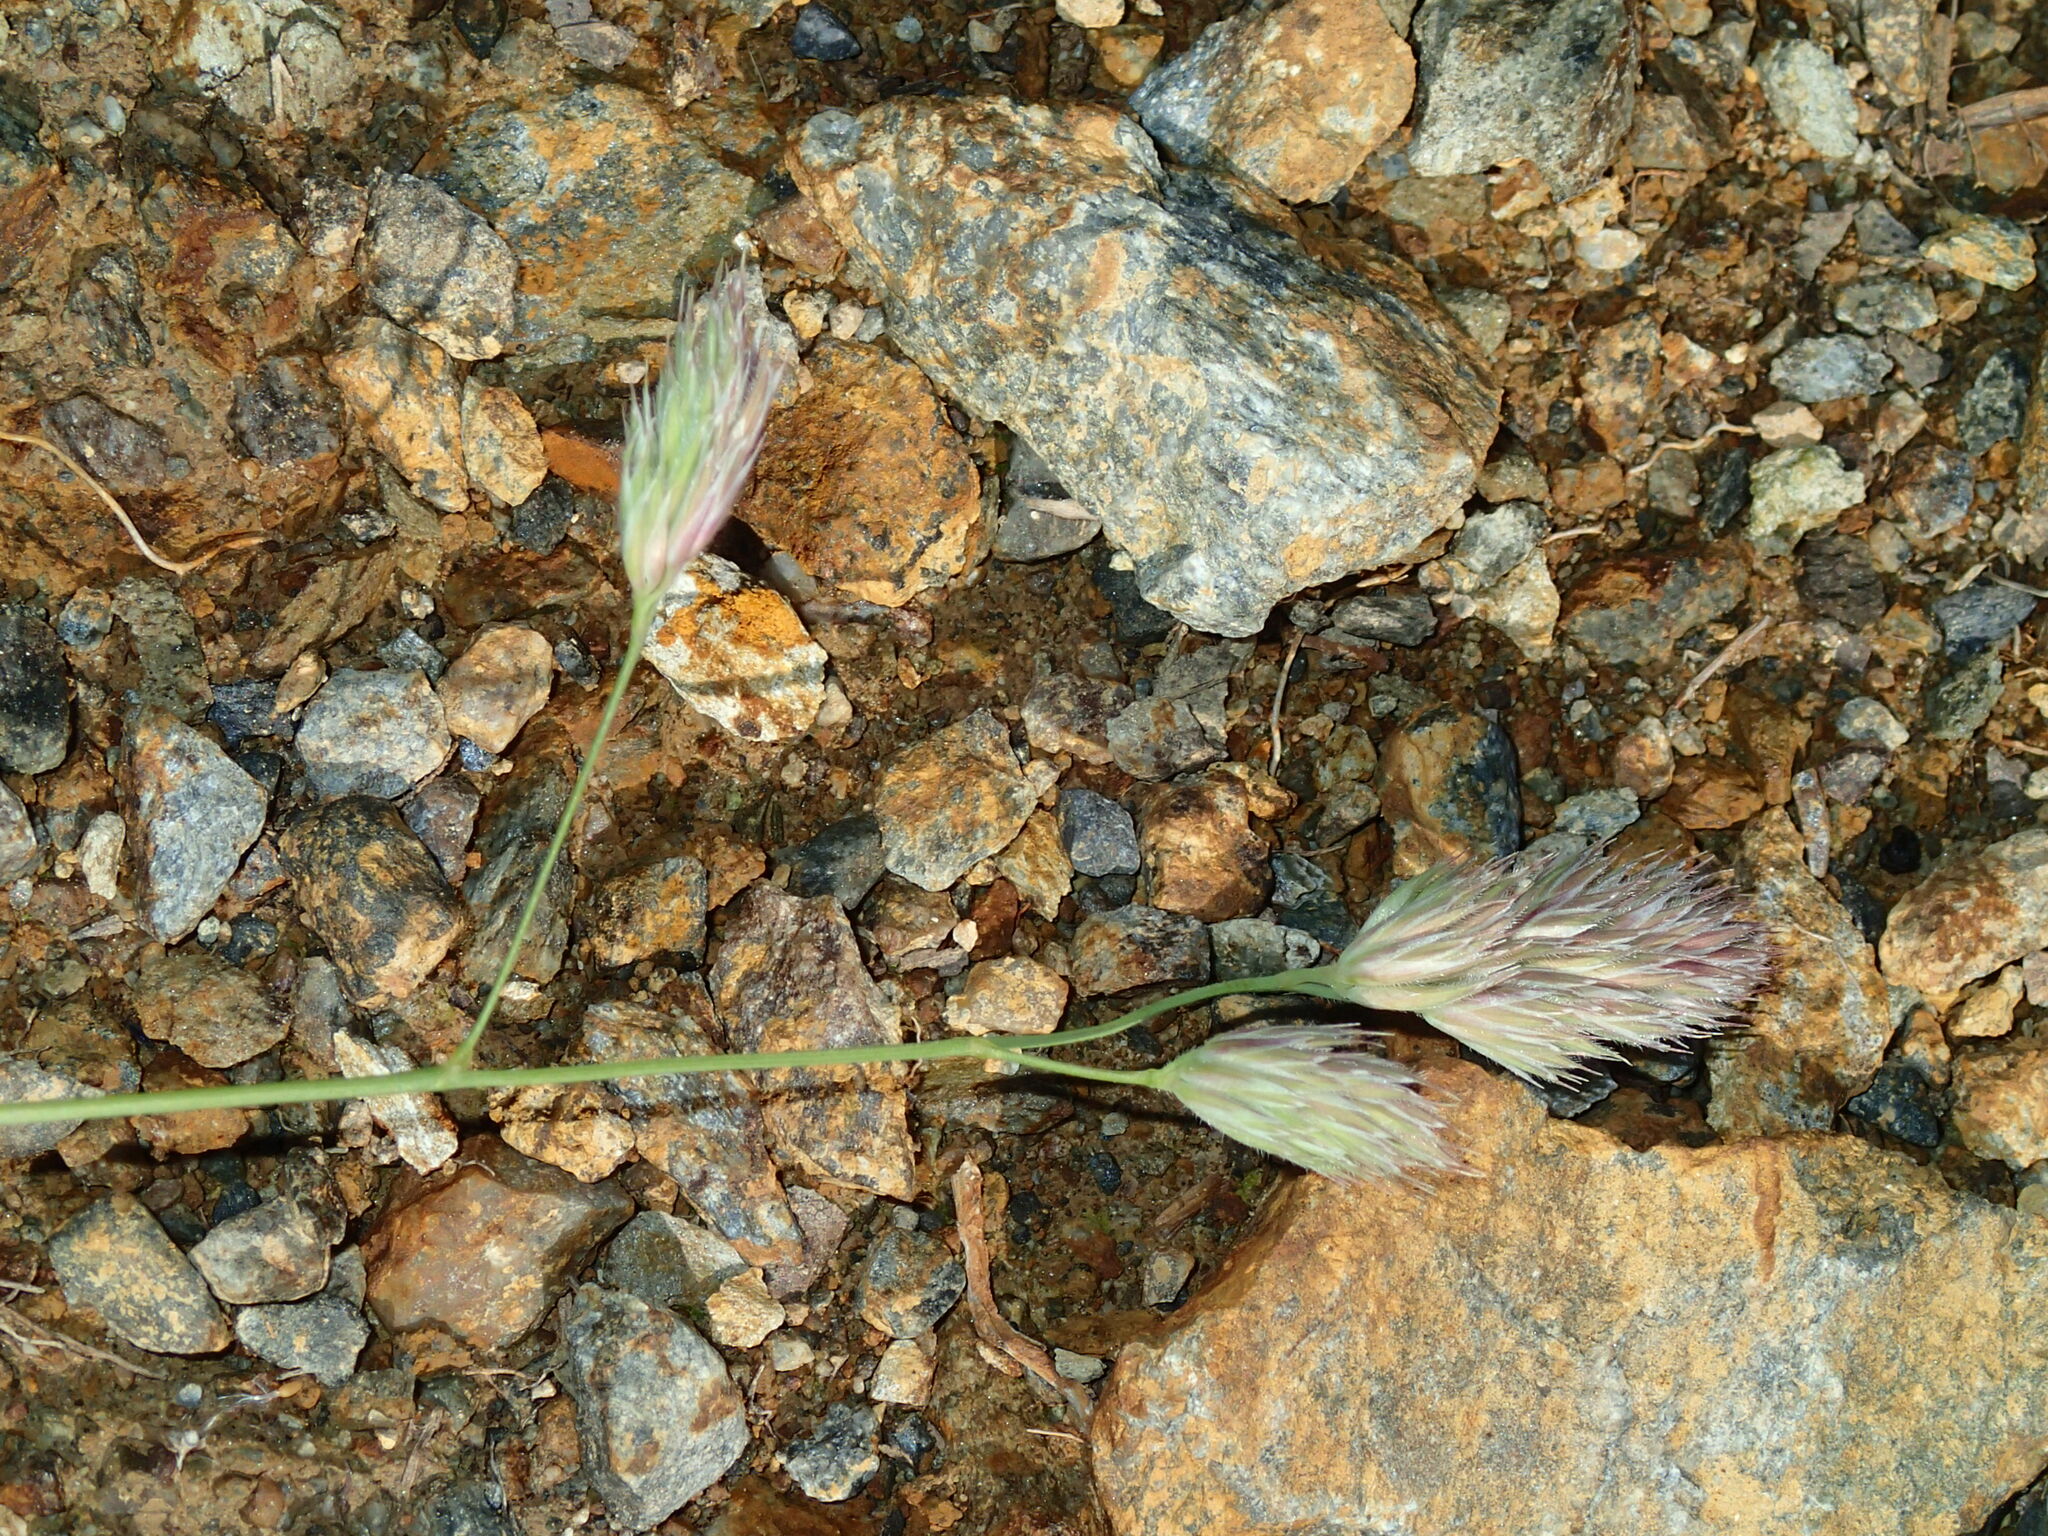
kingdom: Plantae
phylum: Tracheophyta
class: Liliopsida
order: Poales
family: Poaceae
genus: Dactylis
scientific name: Dactylis glomerata
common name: Orchardgrass
